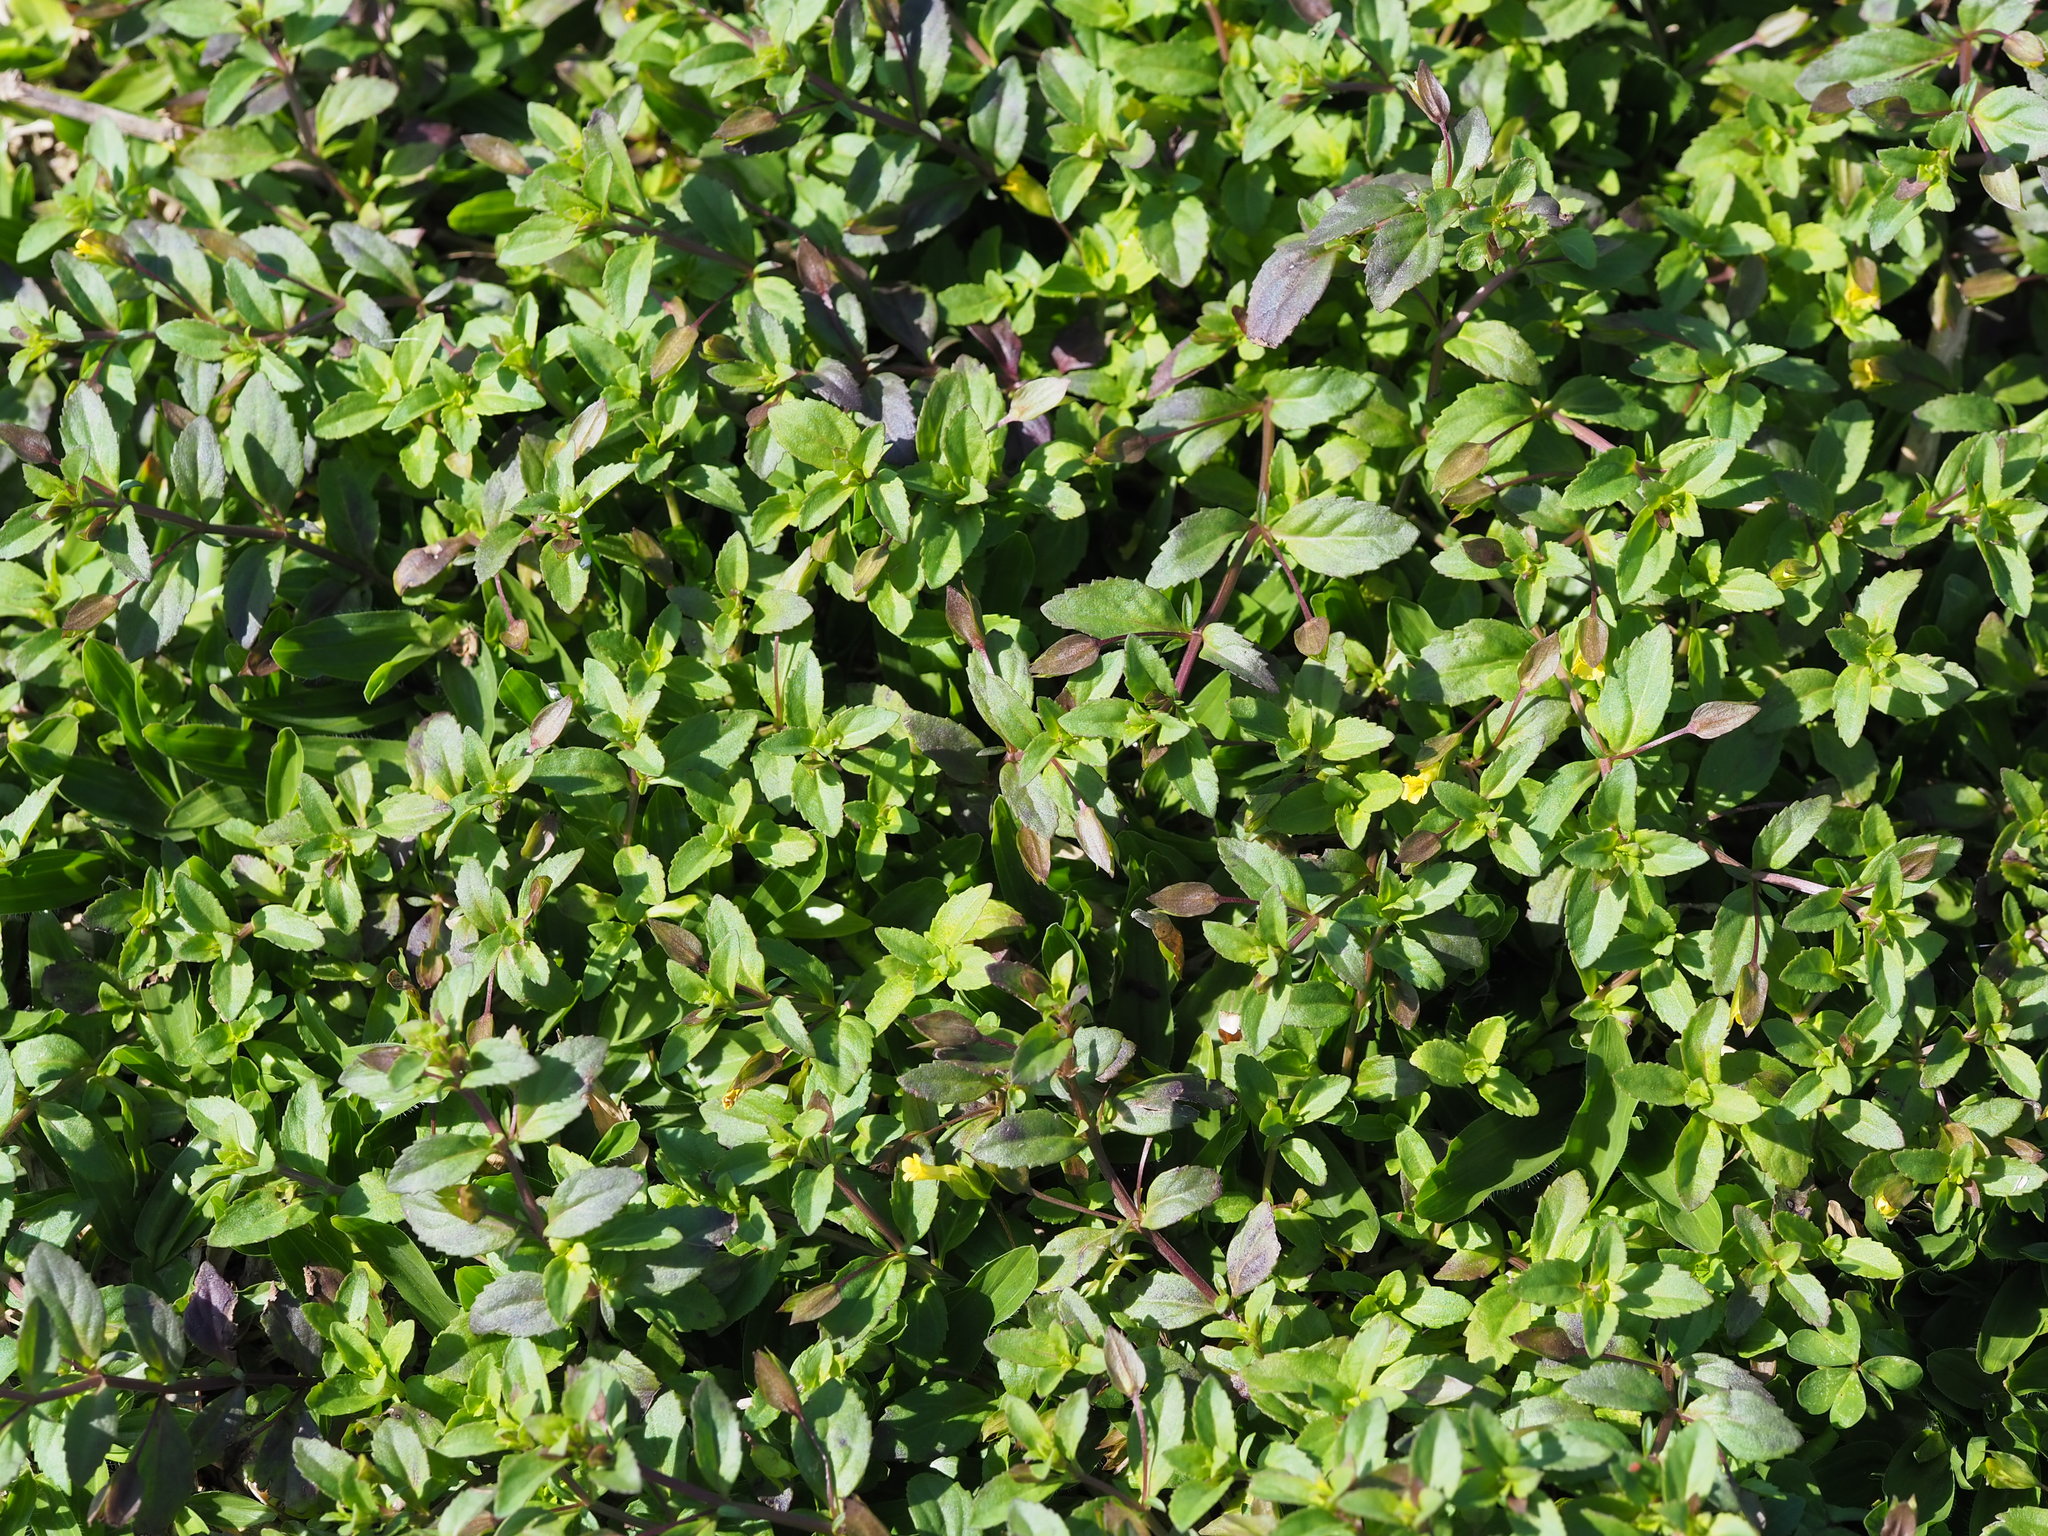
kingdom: Plantae
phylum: Tracheophyta
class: Magnoliopsida
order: Lamiales
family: Plantaginaceae
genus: Mecardonia
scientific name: Mecardonia procumbens
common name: Baby jump-up
